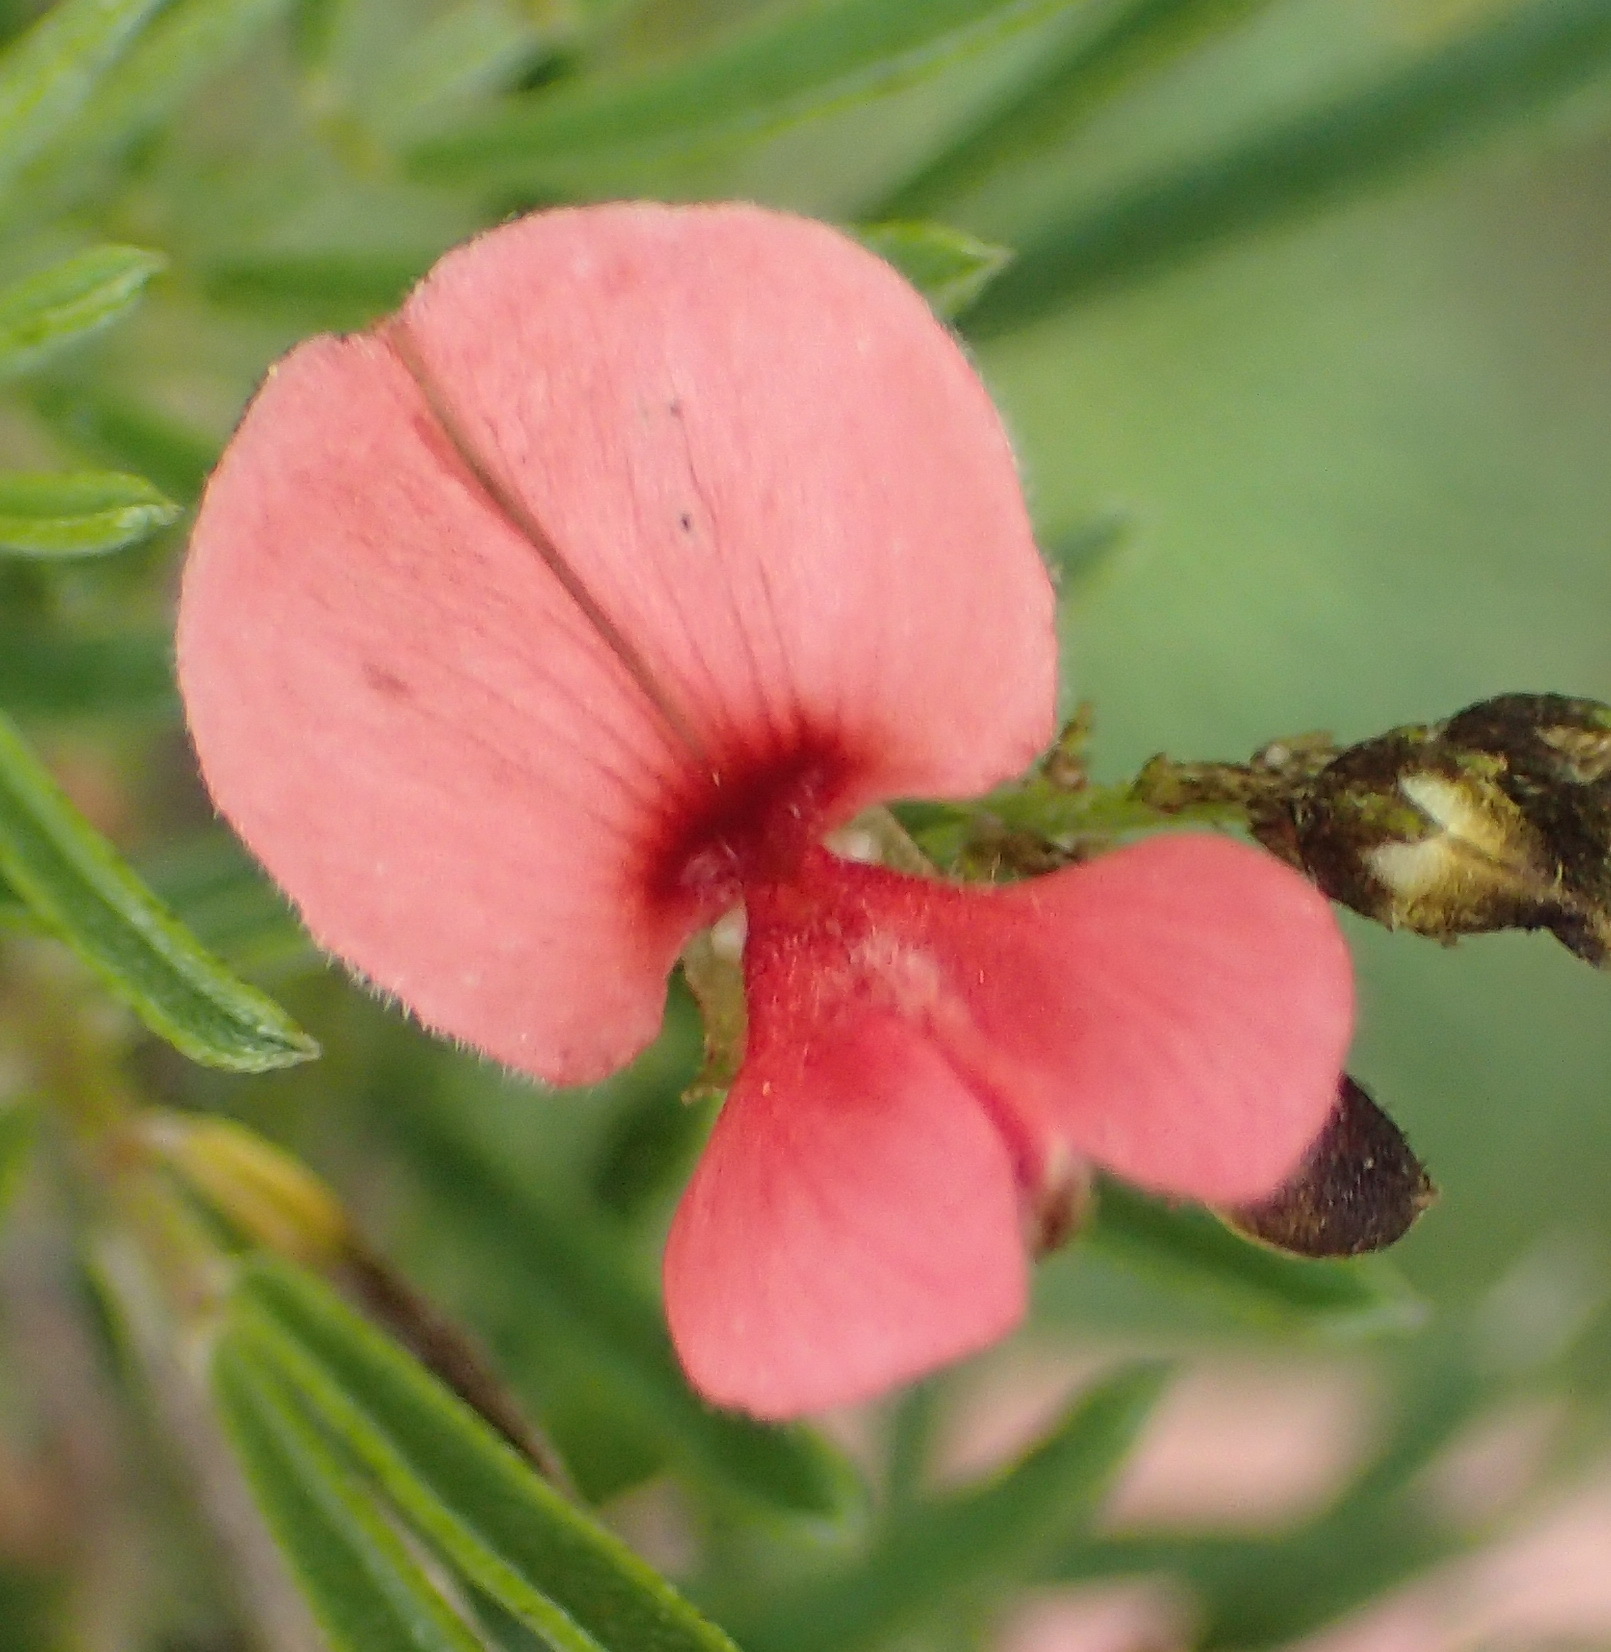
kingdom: Plantae
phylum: Tracheophyta
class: Magnoliopsida
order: Fabales
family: Fabaceae
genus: Indigofera
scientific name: Indigofera verrucosa
